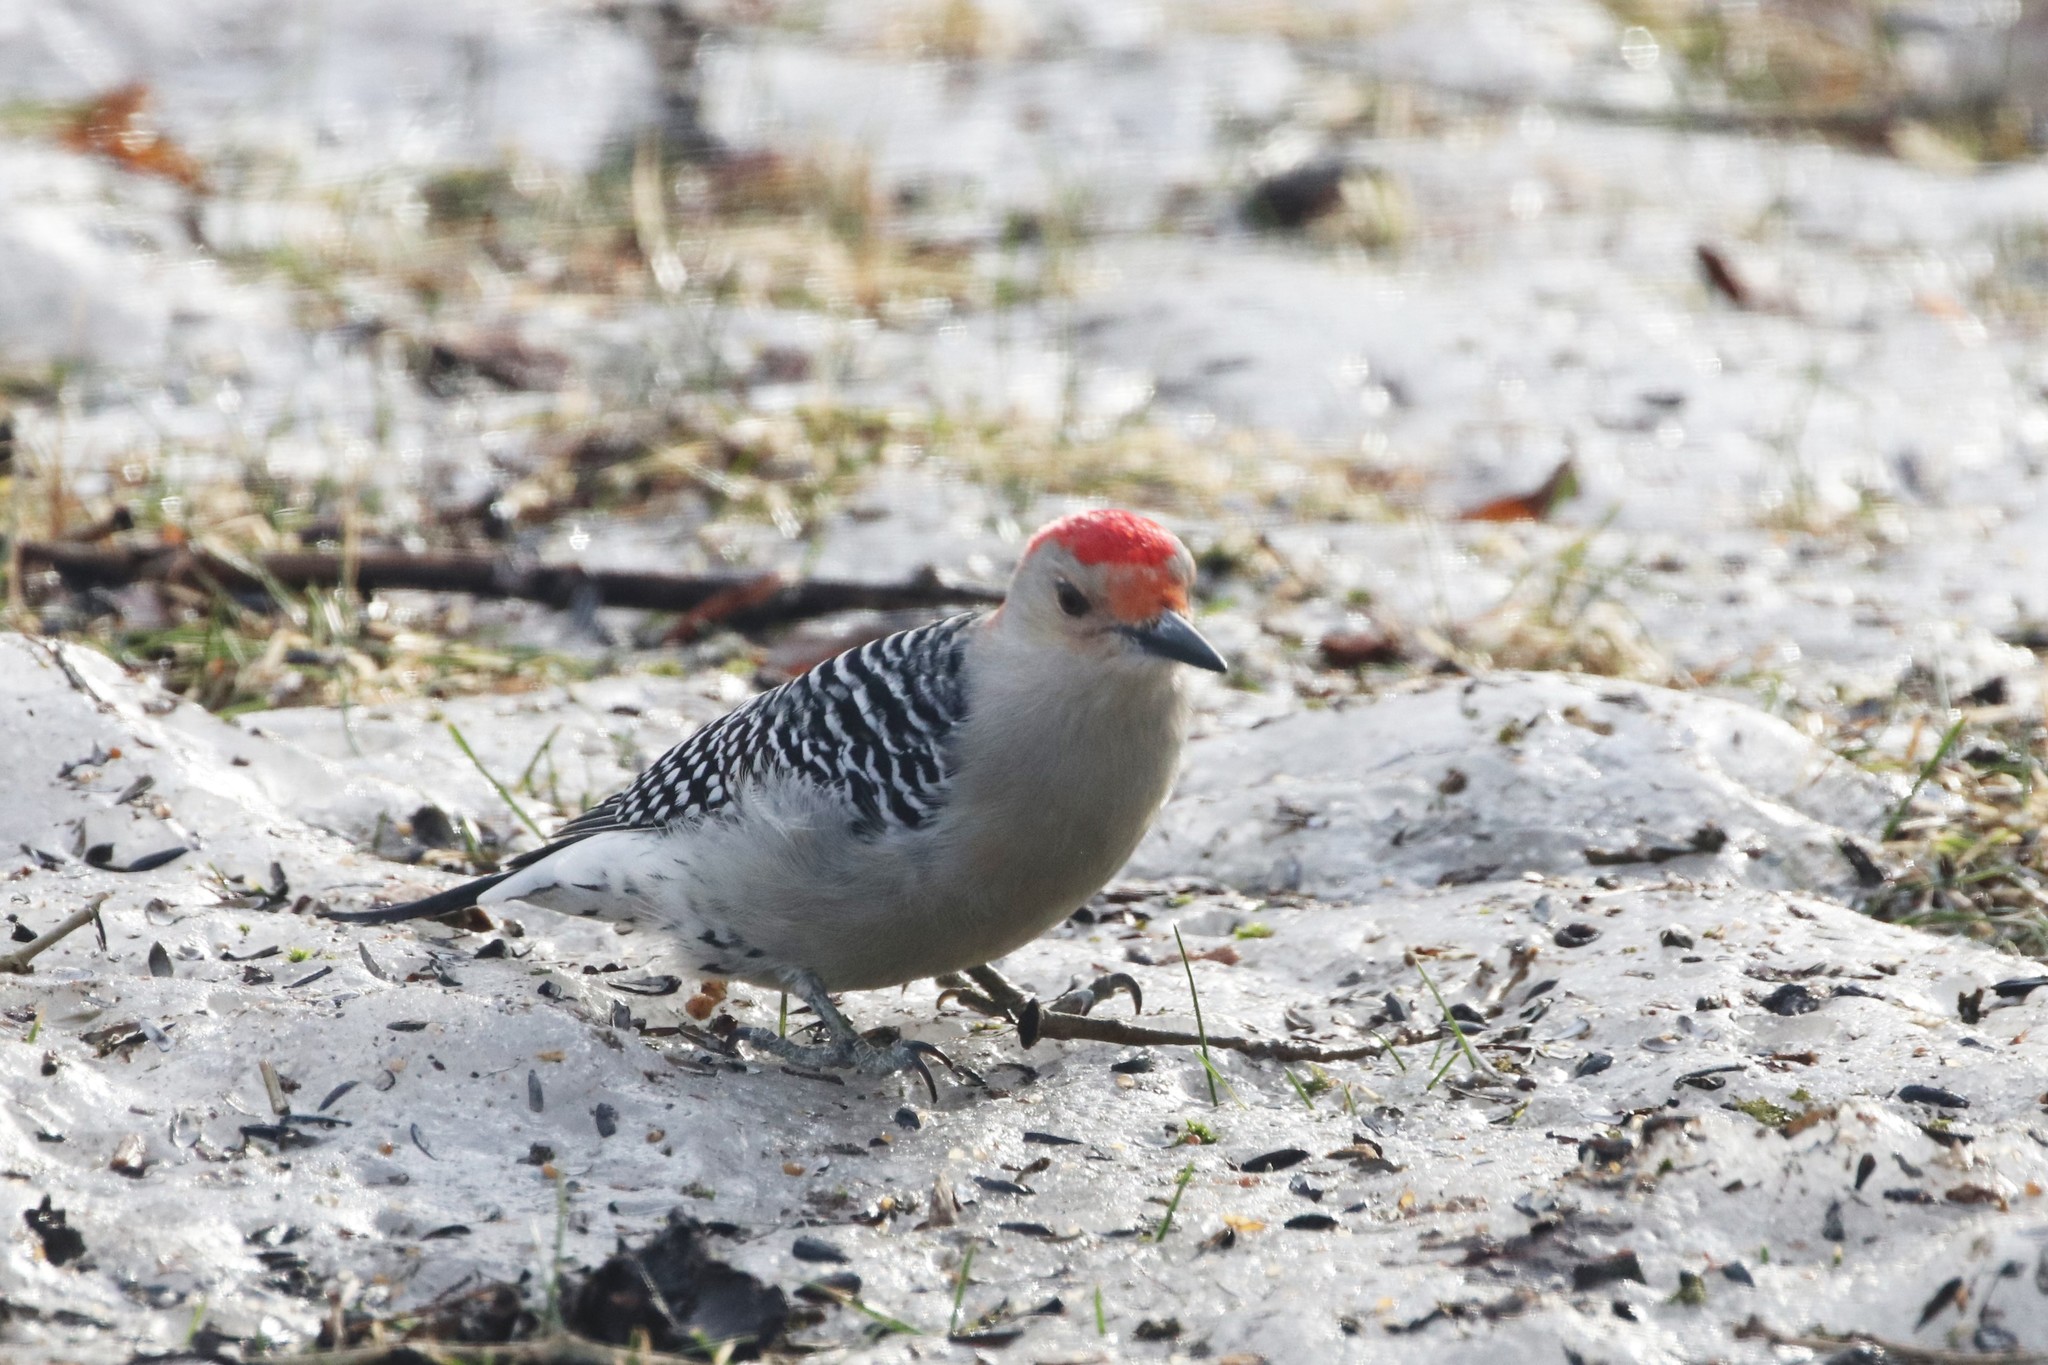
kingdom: Animalia
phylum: Chordata
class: Aves
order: Piciformes
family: Picidae
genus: Melanerpes
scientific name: Melanerpes carolinus
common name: Red-bellied woodpecker
